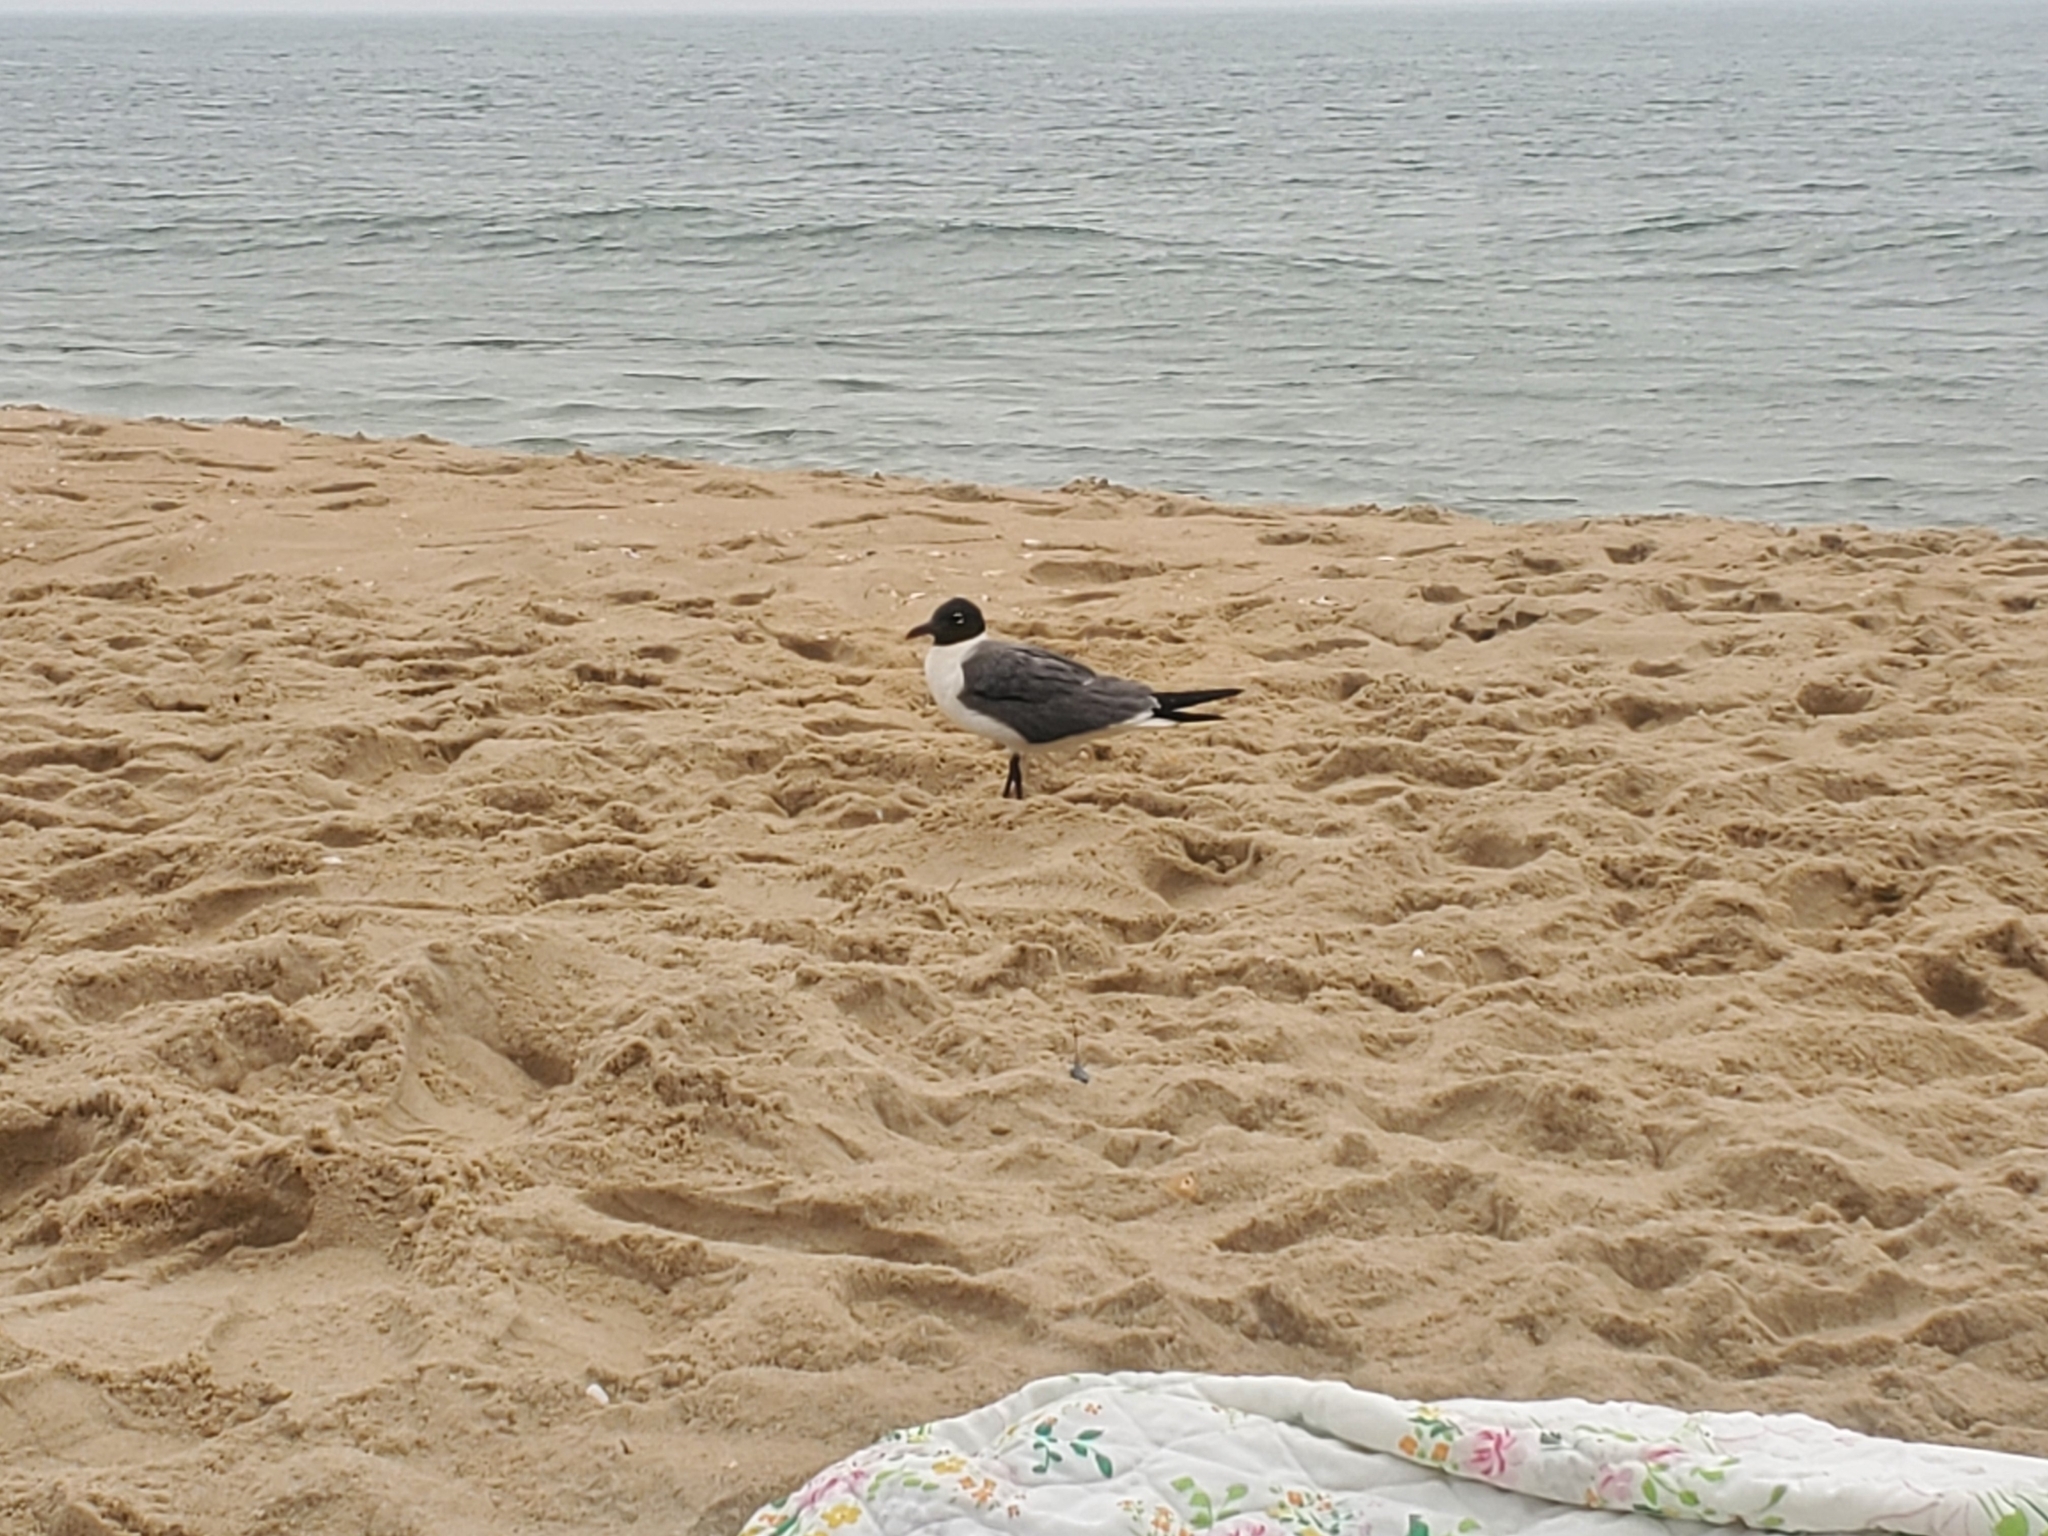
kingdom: Animalia
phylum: Chordata
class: Aves
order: Charadriiformes
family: Laridae
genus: Leucophaeus
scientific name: Leucophaeus atricilla
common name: Laughing gull
